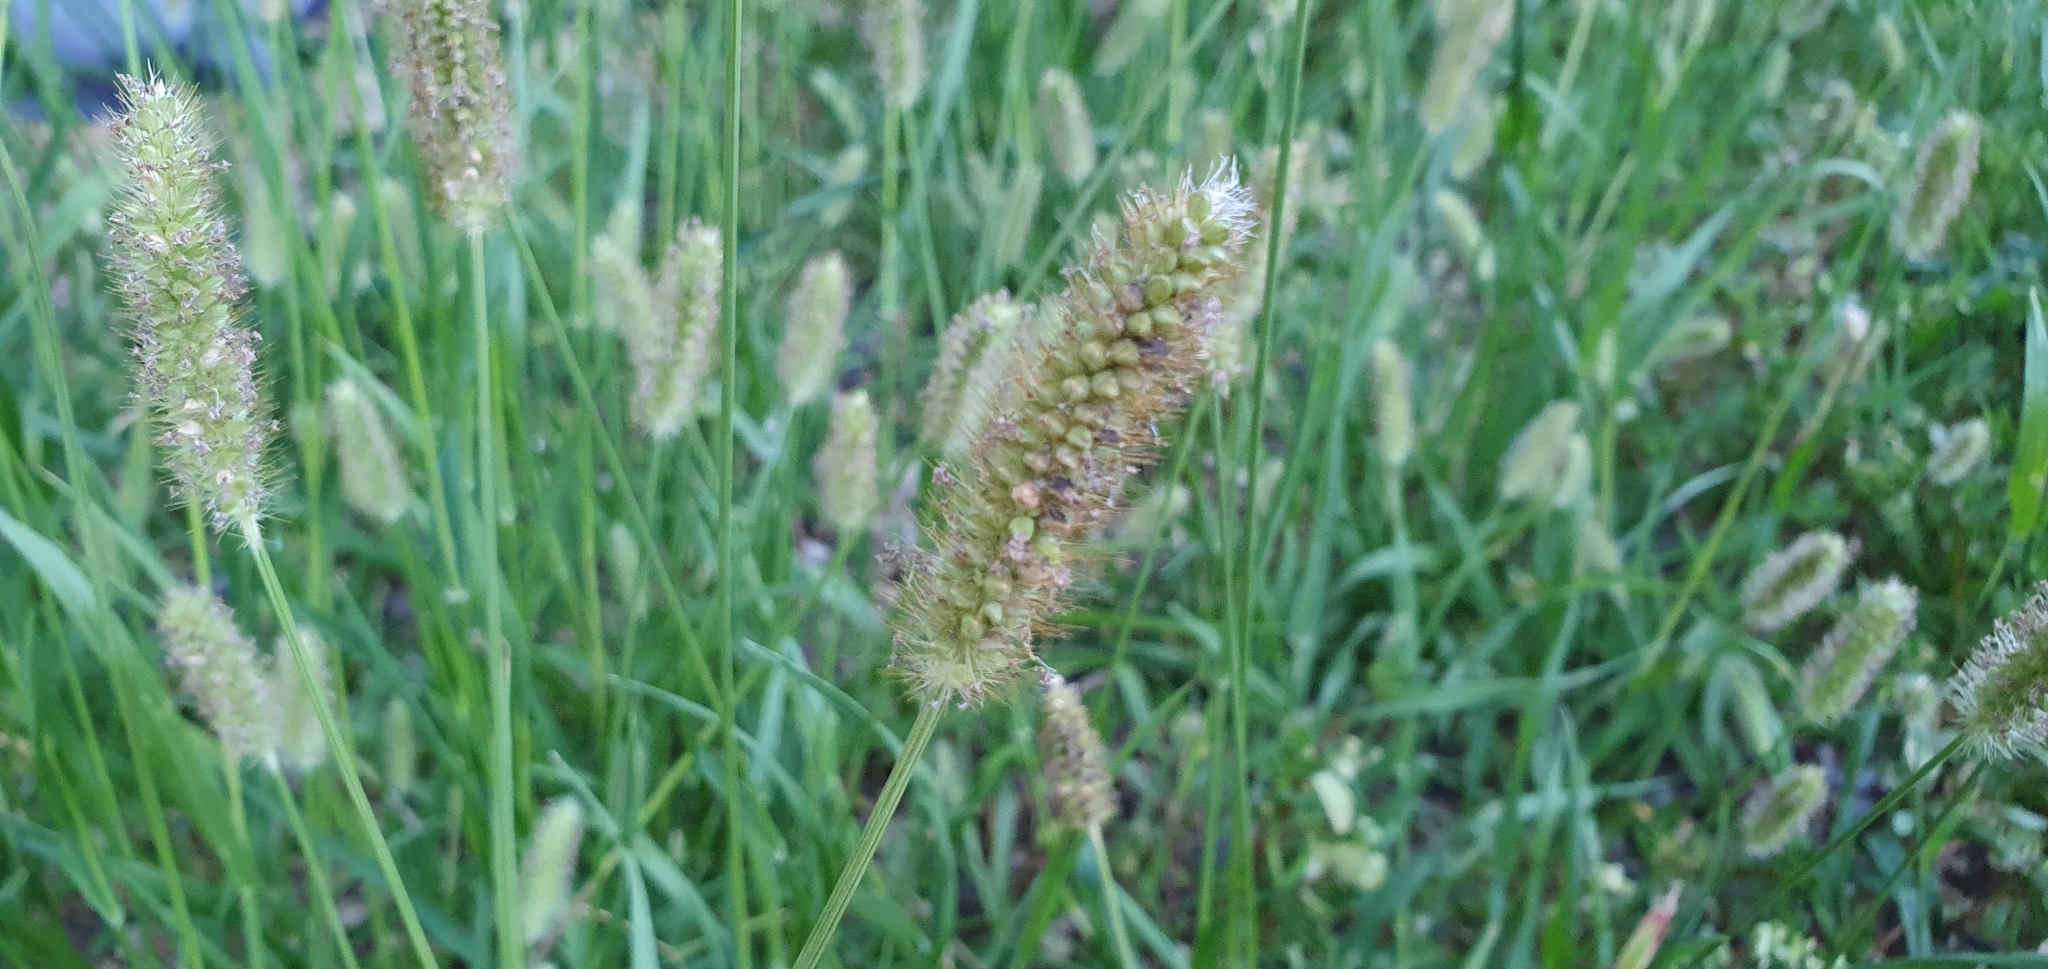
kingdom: Plantae
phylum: Tracheophyta
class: Liliopsida
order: Poales
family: Poaceae
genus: Alopecurus
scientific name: Alopecurus pratensis
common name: Meadow foxtail
